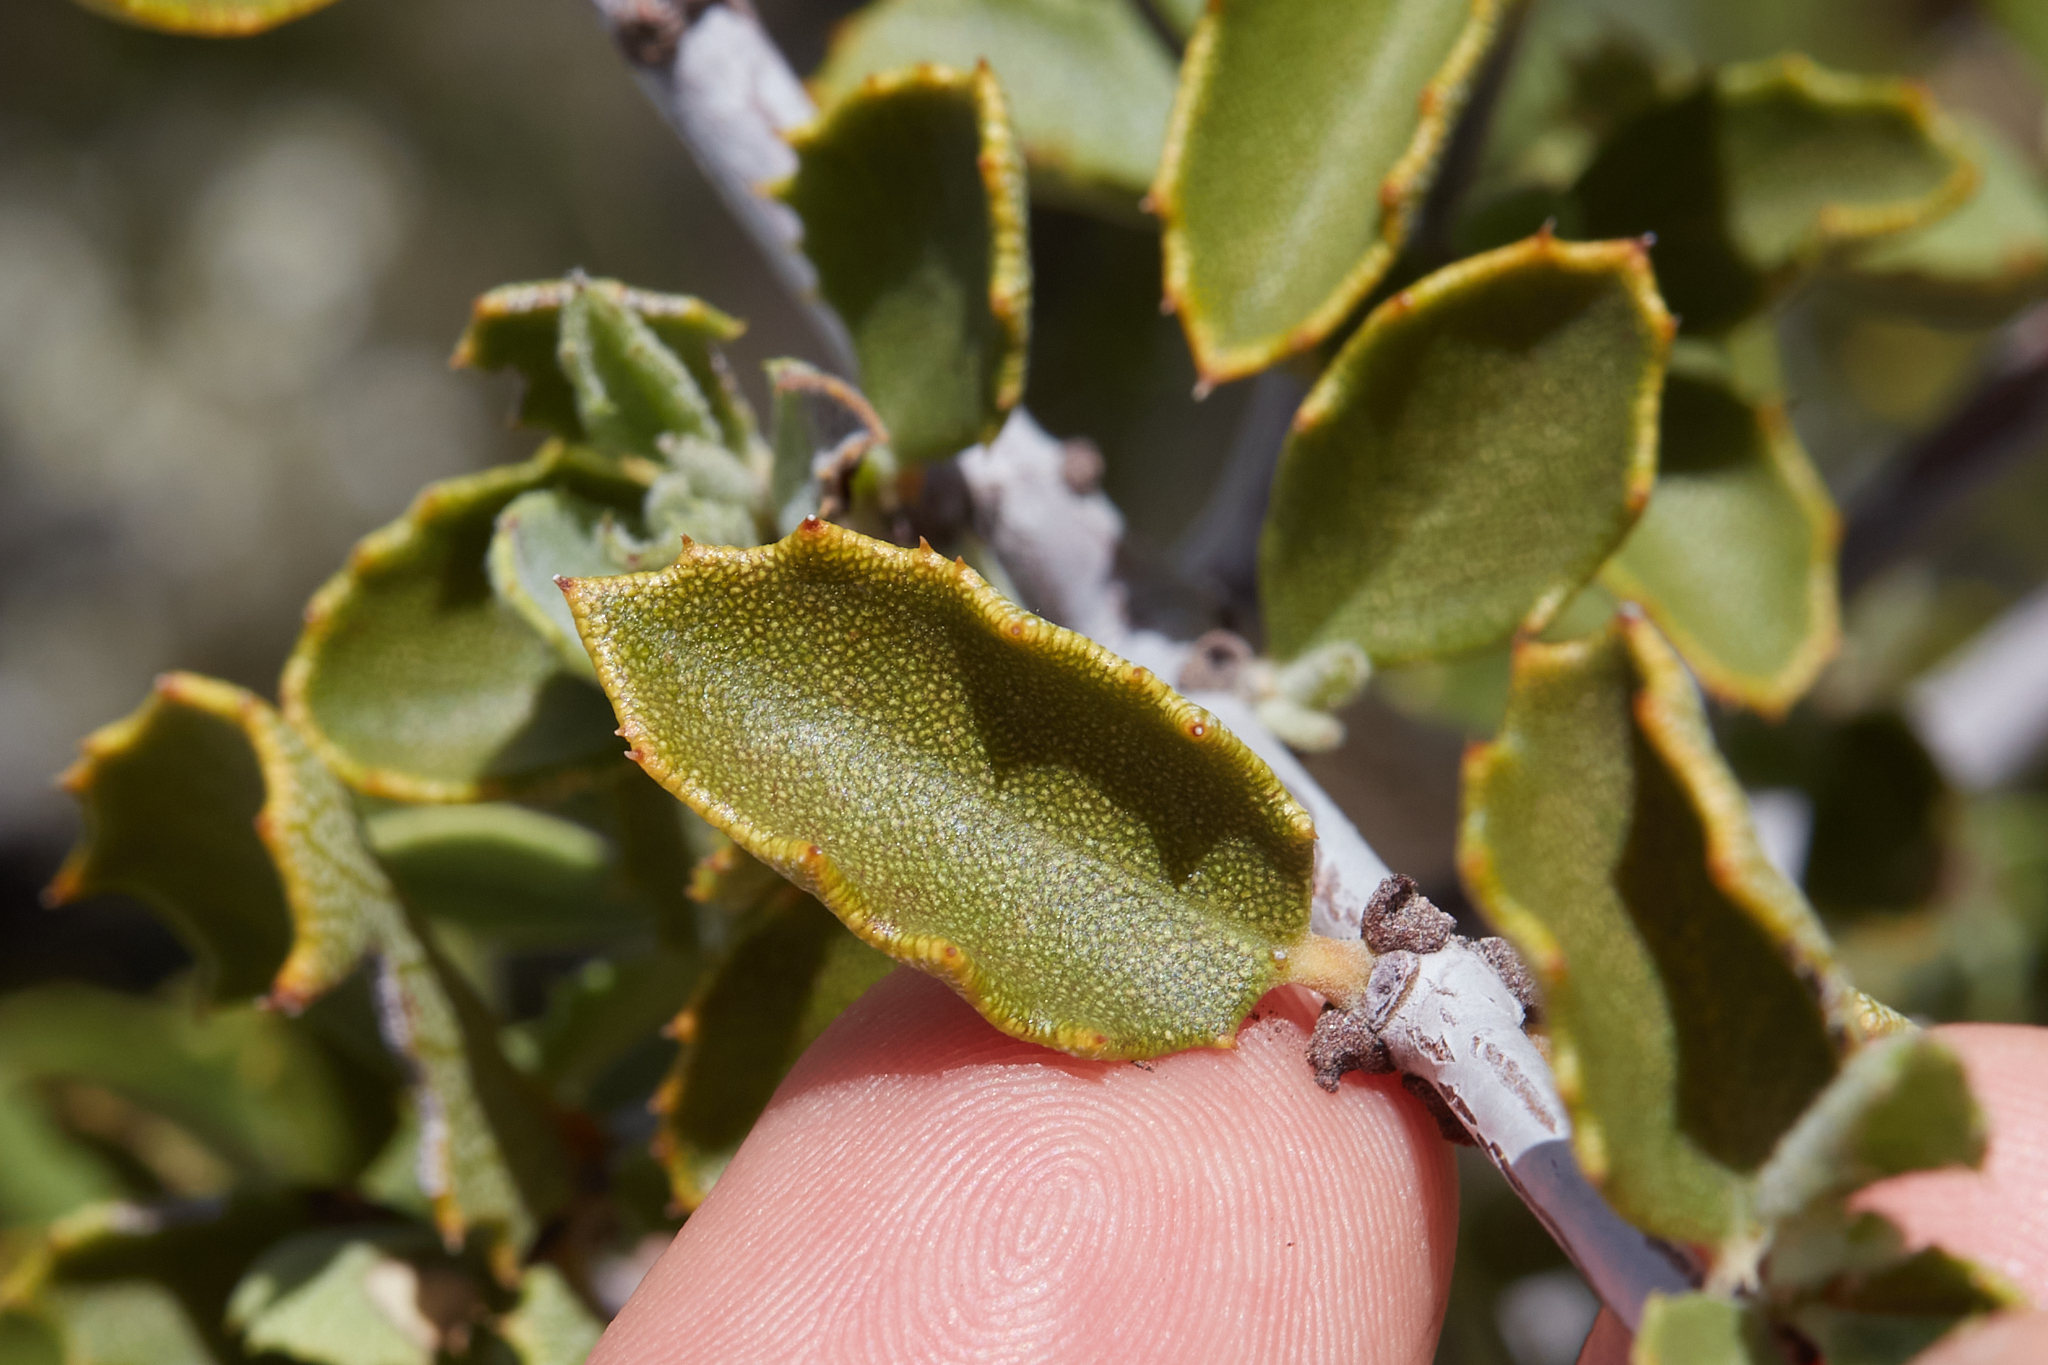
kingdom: Plantae
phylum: Tracheophyta
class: Magnoliopsida
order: Rosales
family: Rhamnaceae
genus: Ceanothus
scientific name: Ceanothus perplexans
